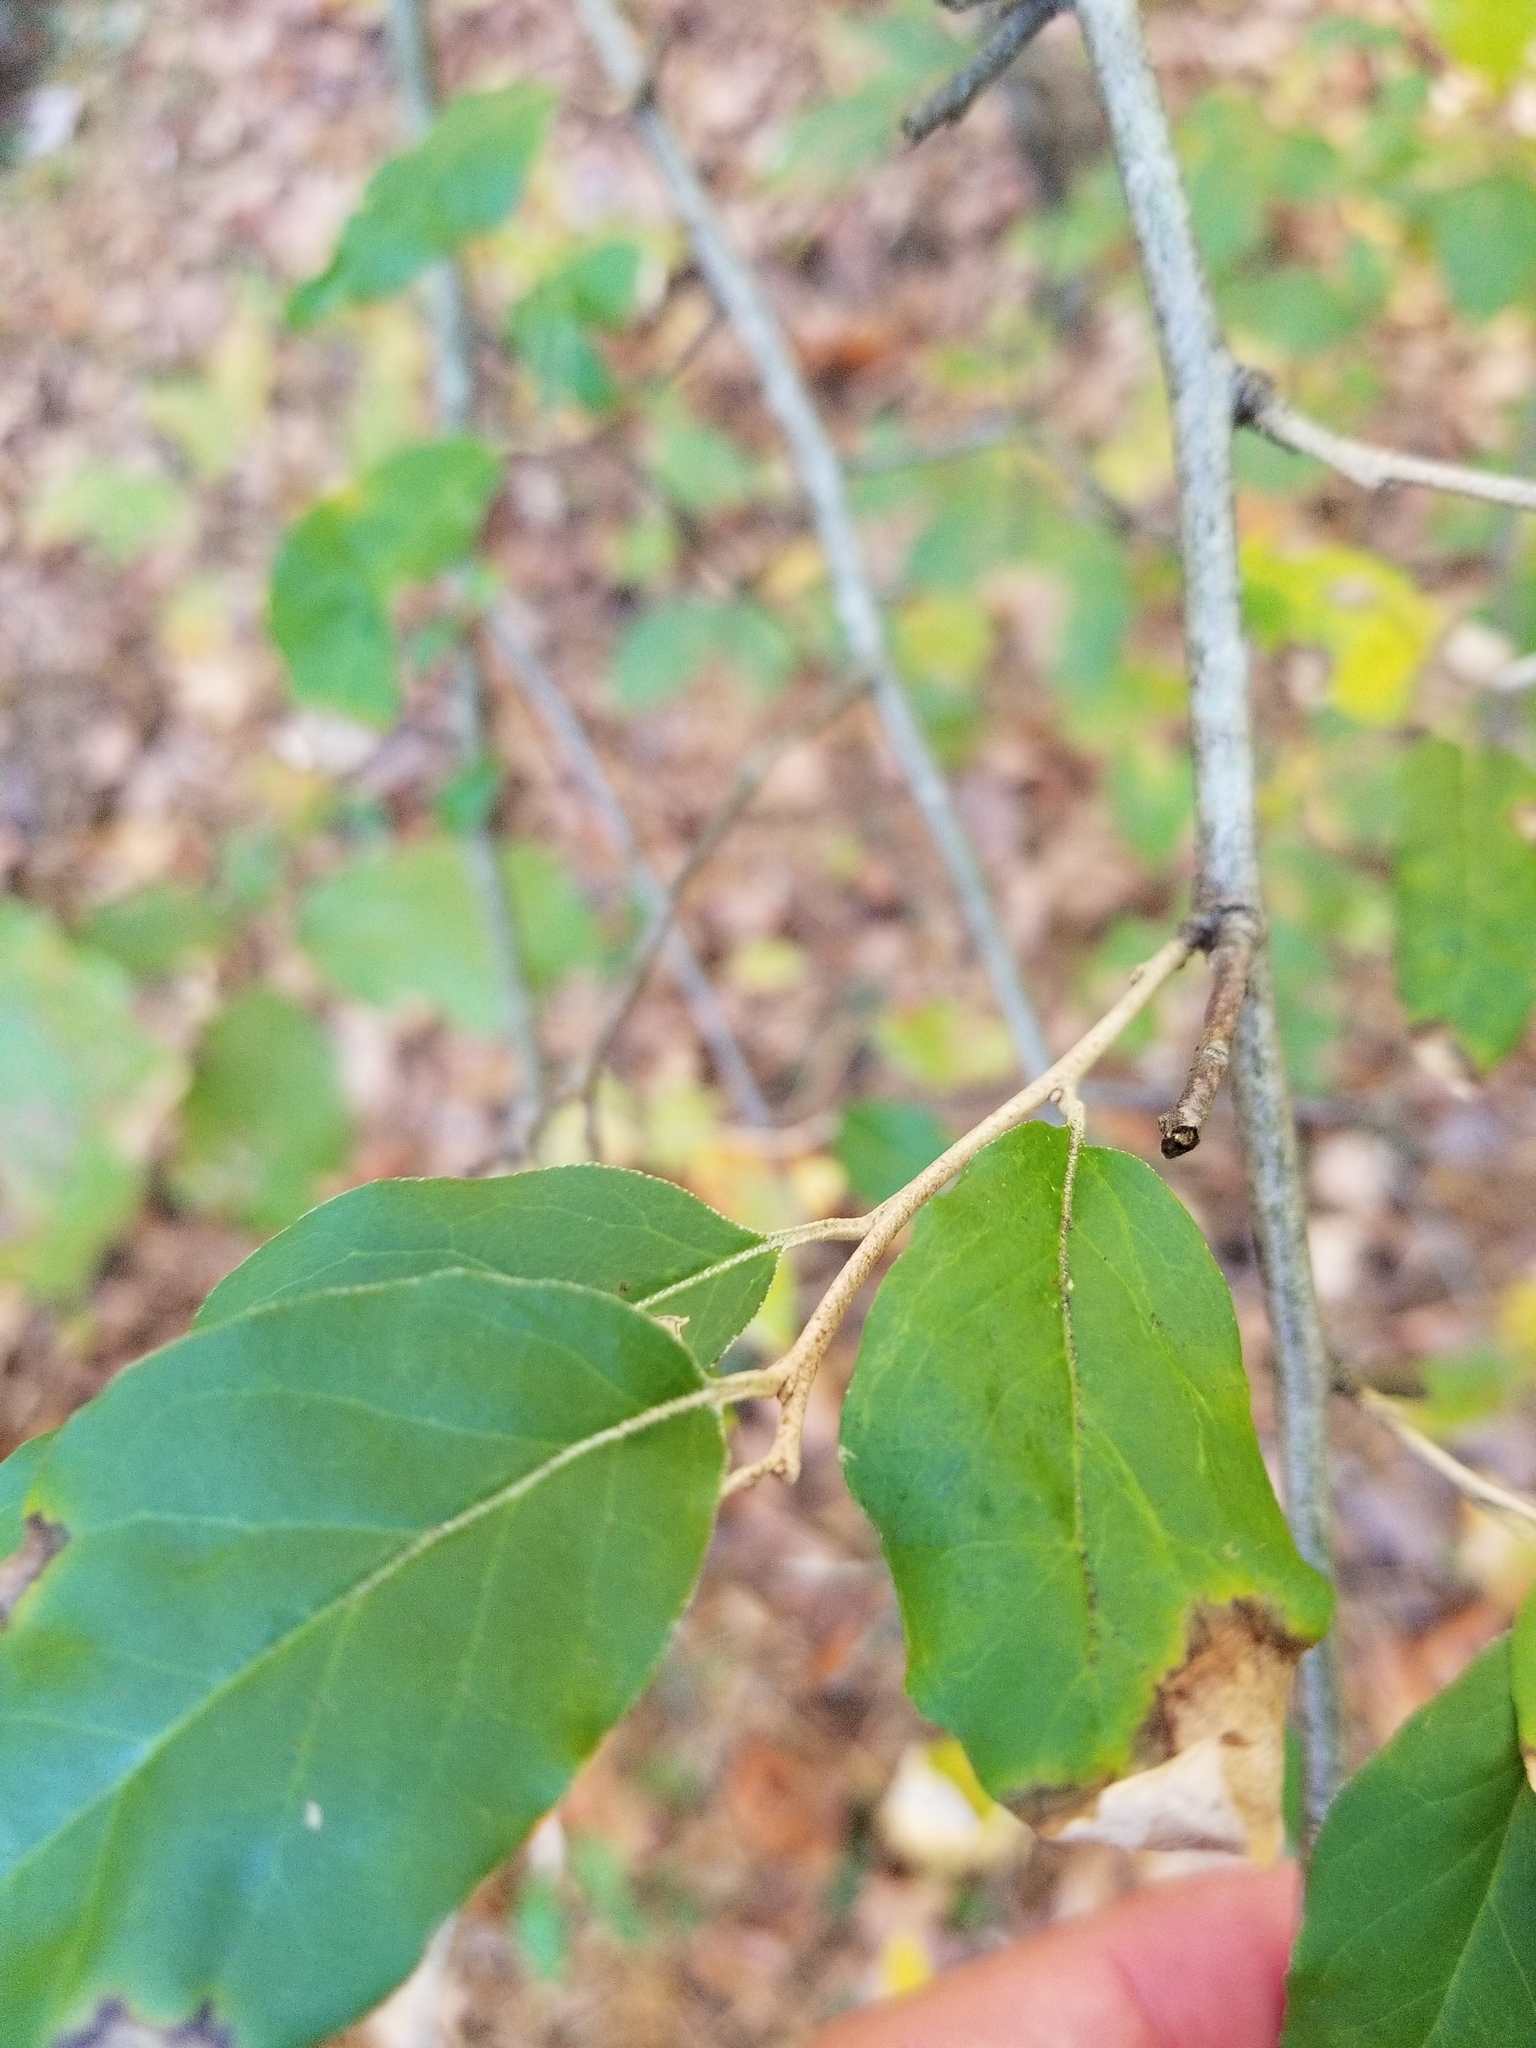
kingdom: Plantae
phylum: Tracheophyta
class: Magnoliopsida
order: Rosales
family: Elaeagnaceae
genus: Elaeagnus
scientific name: Elaeagnus umbellata
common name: Autumn olive
